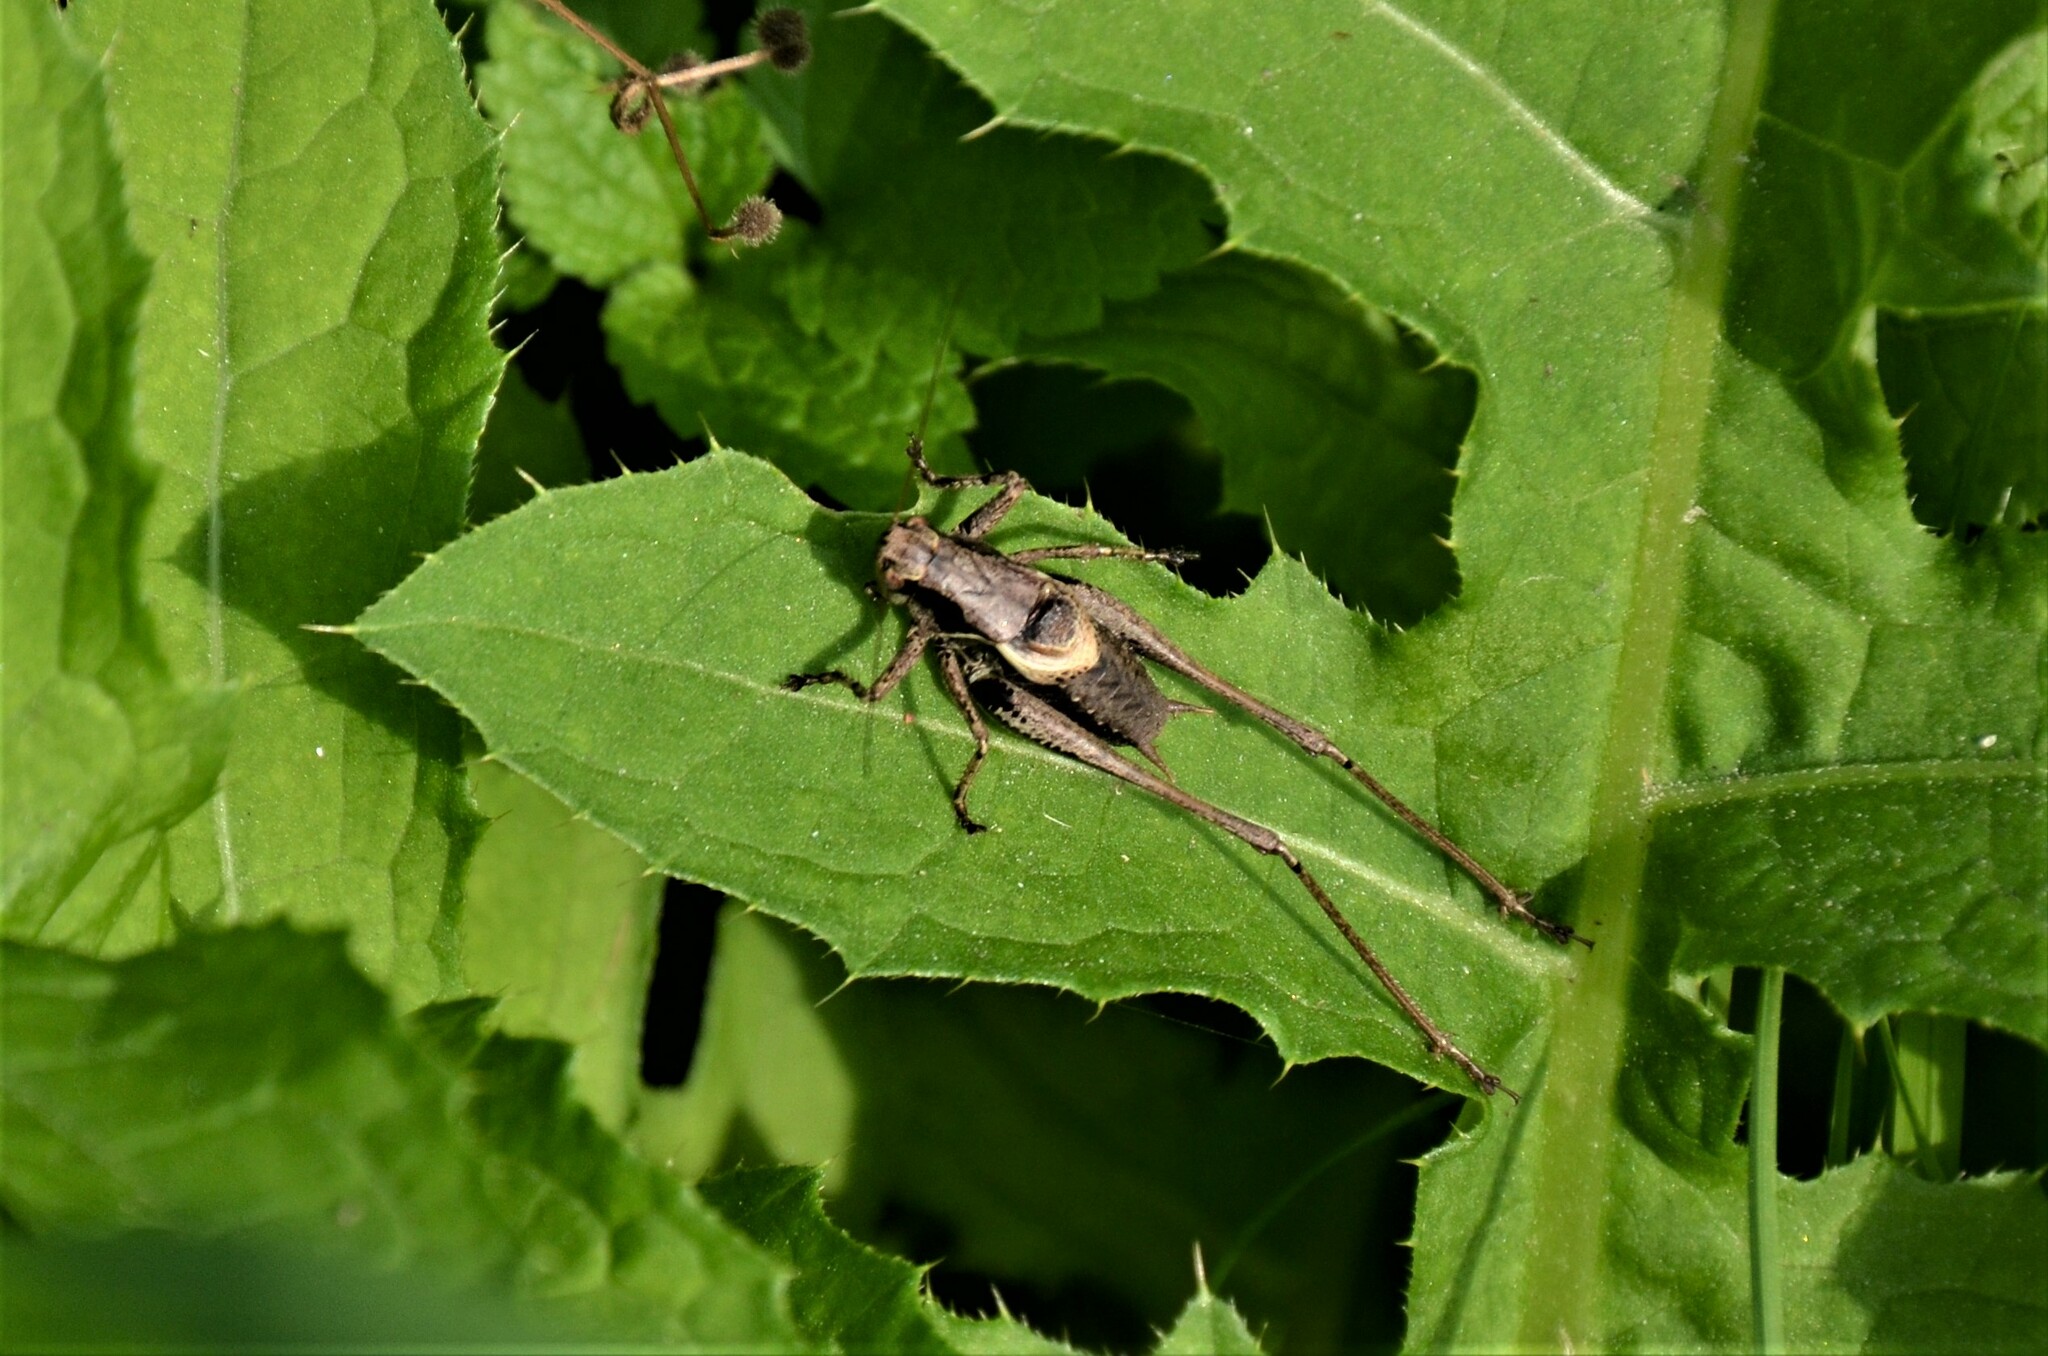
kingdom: Animalia
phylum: Arthropoda
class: Insecta
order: Orthoptera
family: Tettigoniidae
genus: Pholidoptera
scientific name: Pholidoptera griseoaptera
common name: Dark bush-cricket
